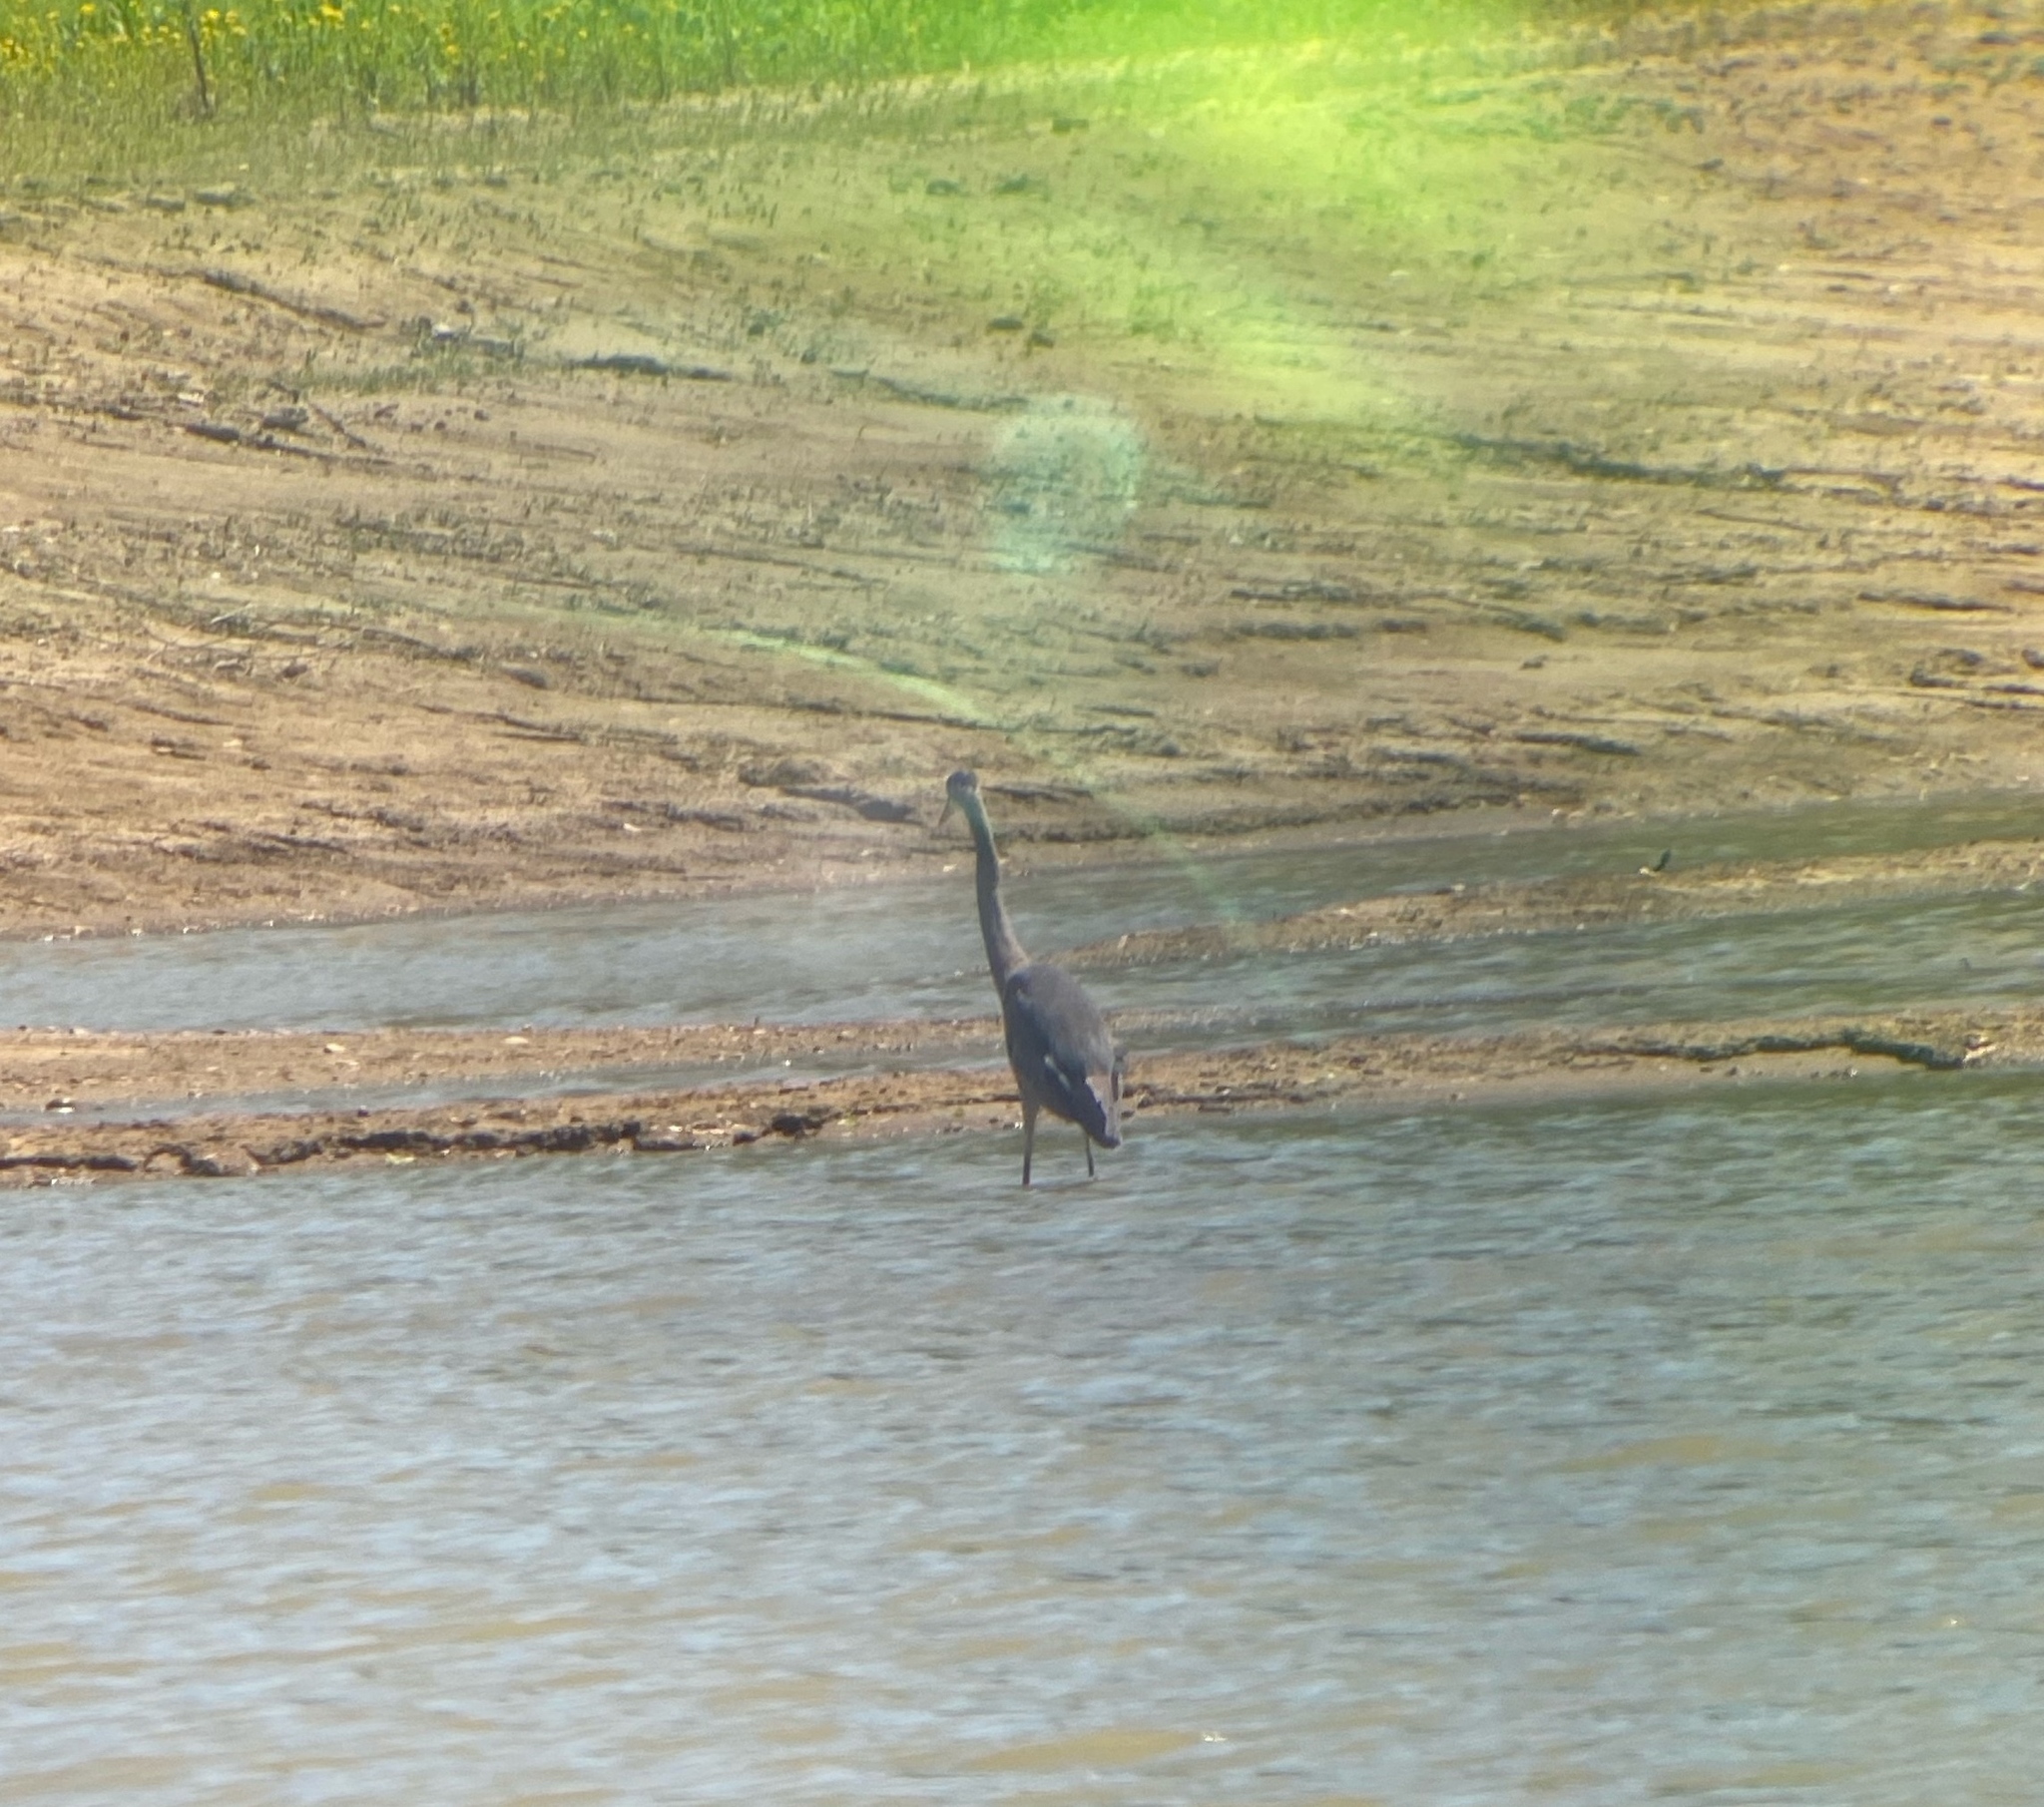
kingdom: Animalia
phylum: Chordata
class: Aves
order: Pelecaniformes
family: Ardeidae
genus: Ardea
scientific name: Ardea herodias
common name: Great blue heron
